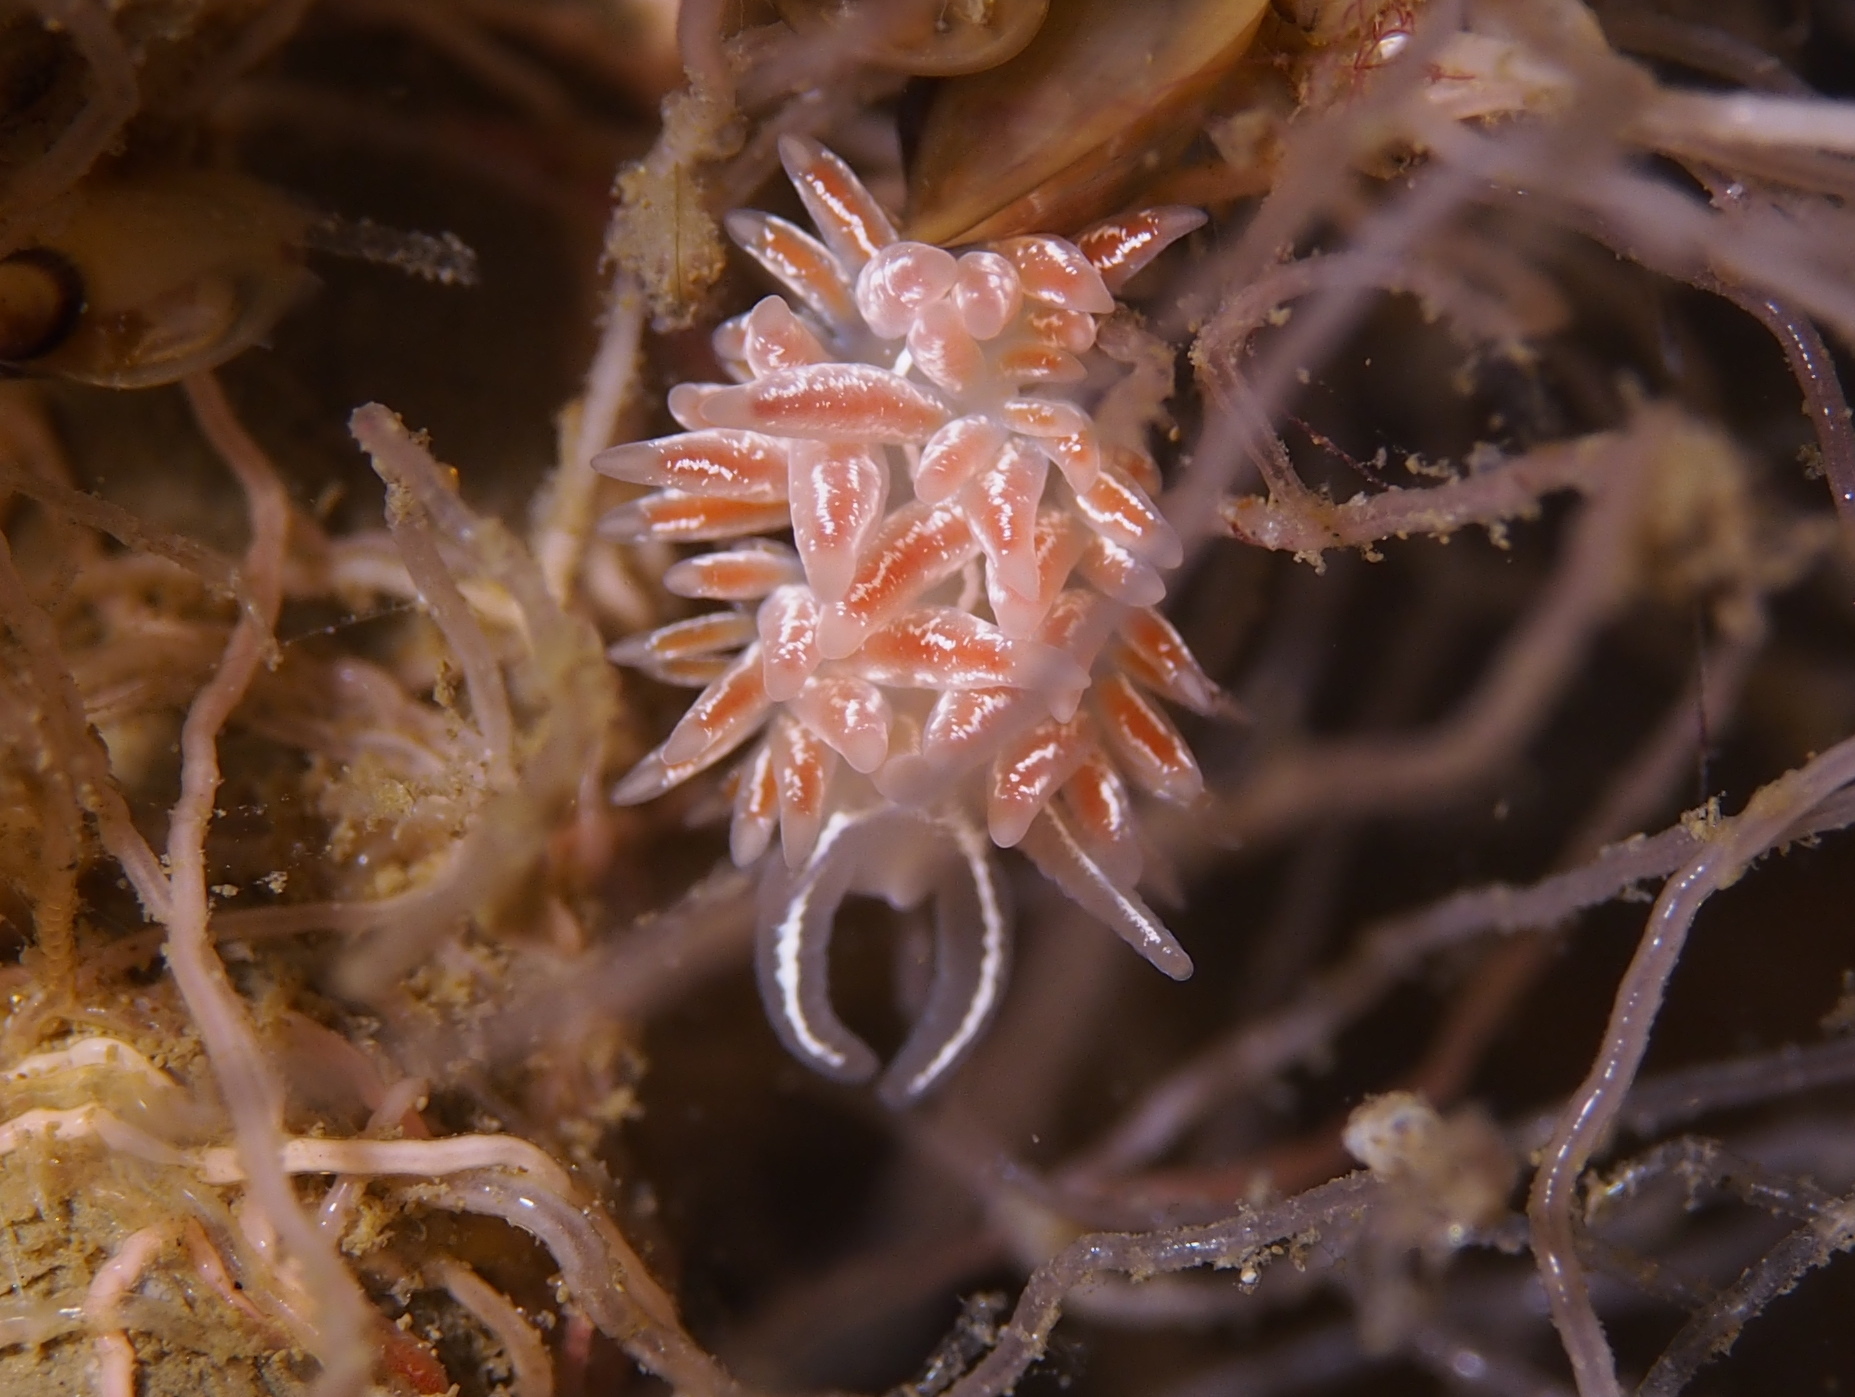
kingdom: Animalia
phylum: Mollusca
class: Gastropoda
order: Nudibranchia
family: Coryphellidae
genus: Coryphella
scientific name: Coryphella chriskaugei
